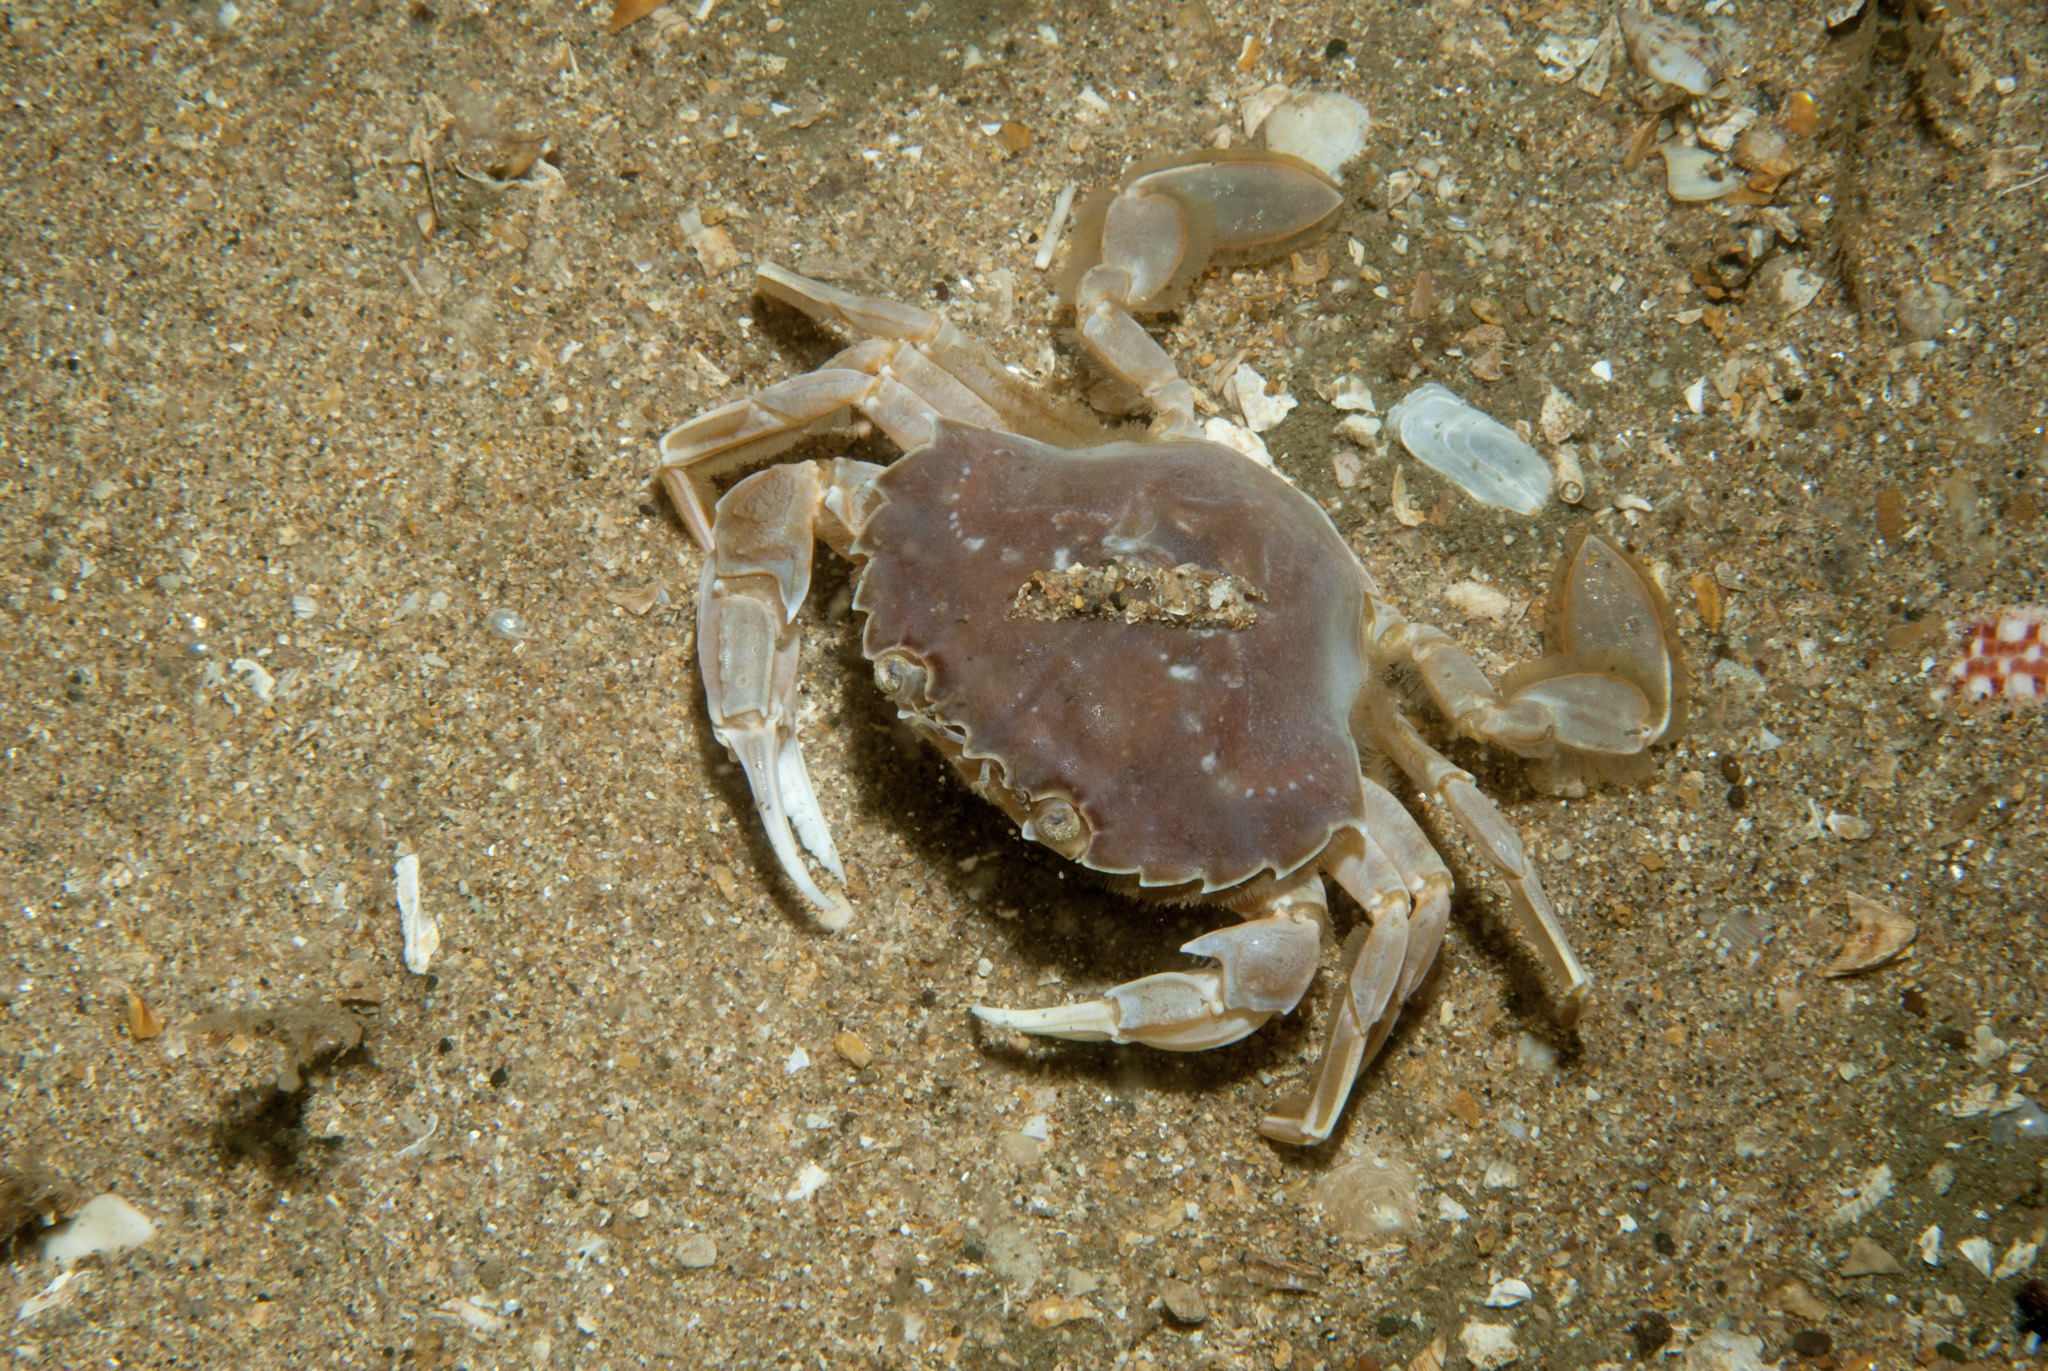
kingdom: Animalia
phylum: Arthropoda
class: Malacostraca
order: Decapoda
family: Polybiidae
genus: Liocarcinus
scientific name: Liocarcinus holsatus
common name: Flying crab
